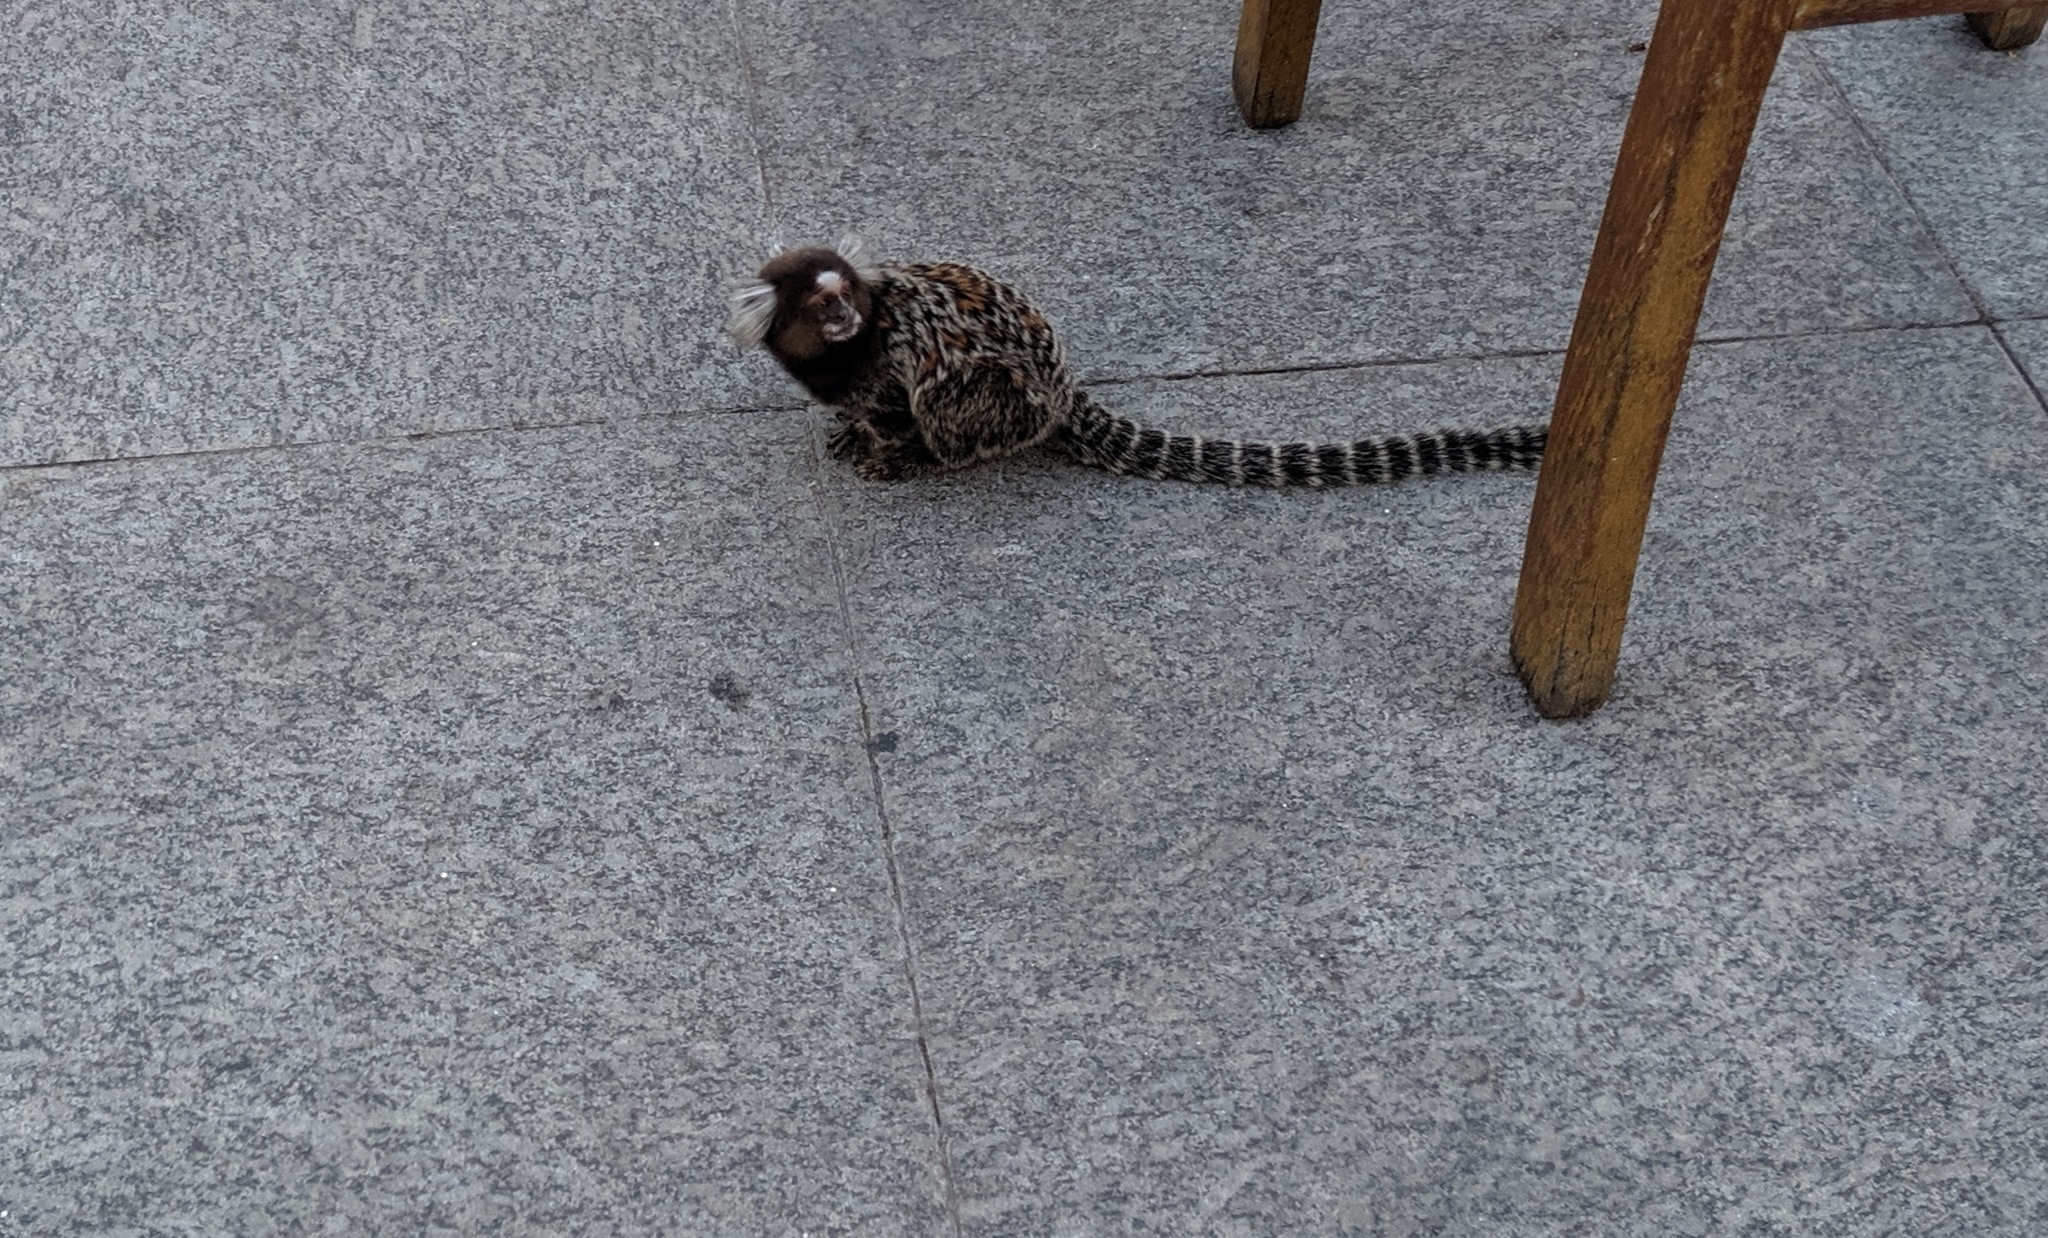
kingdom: Animalia
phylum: Chordata
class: Mammalia
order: Primates
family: Callitrichidae
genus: Callithrix
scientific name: Callithrix jacchus
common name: Common marmoset
